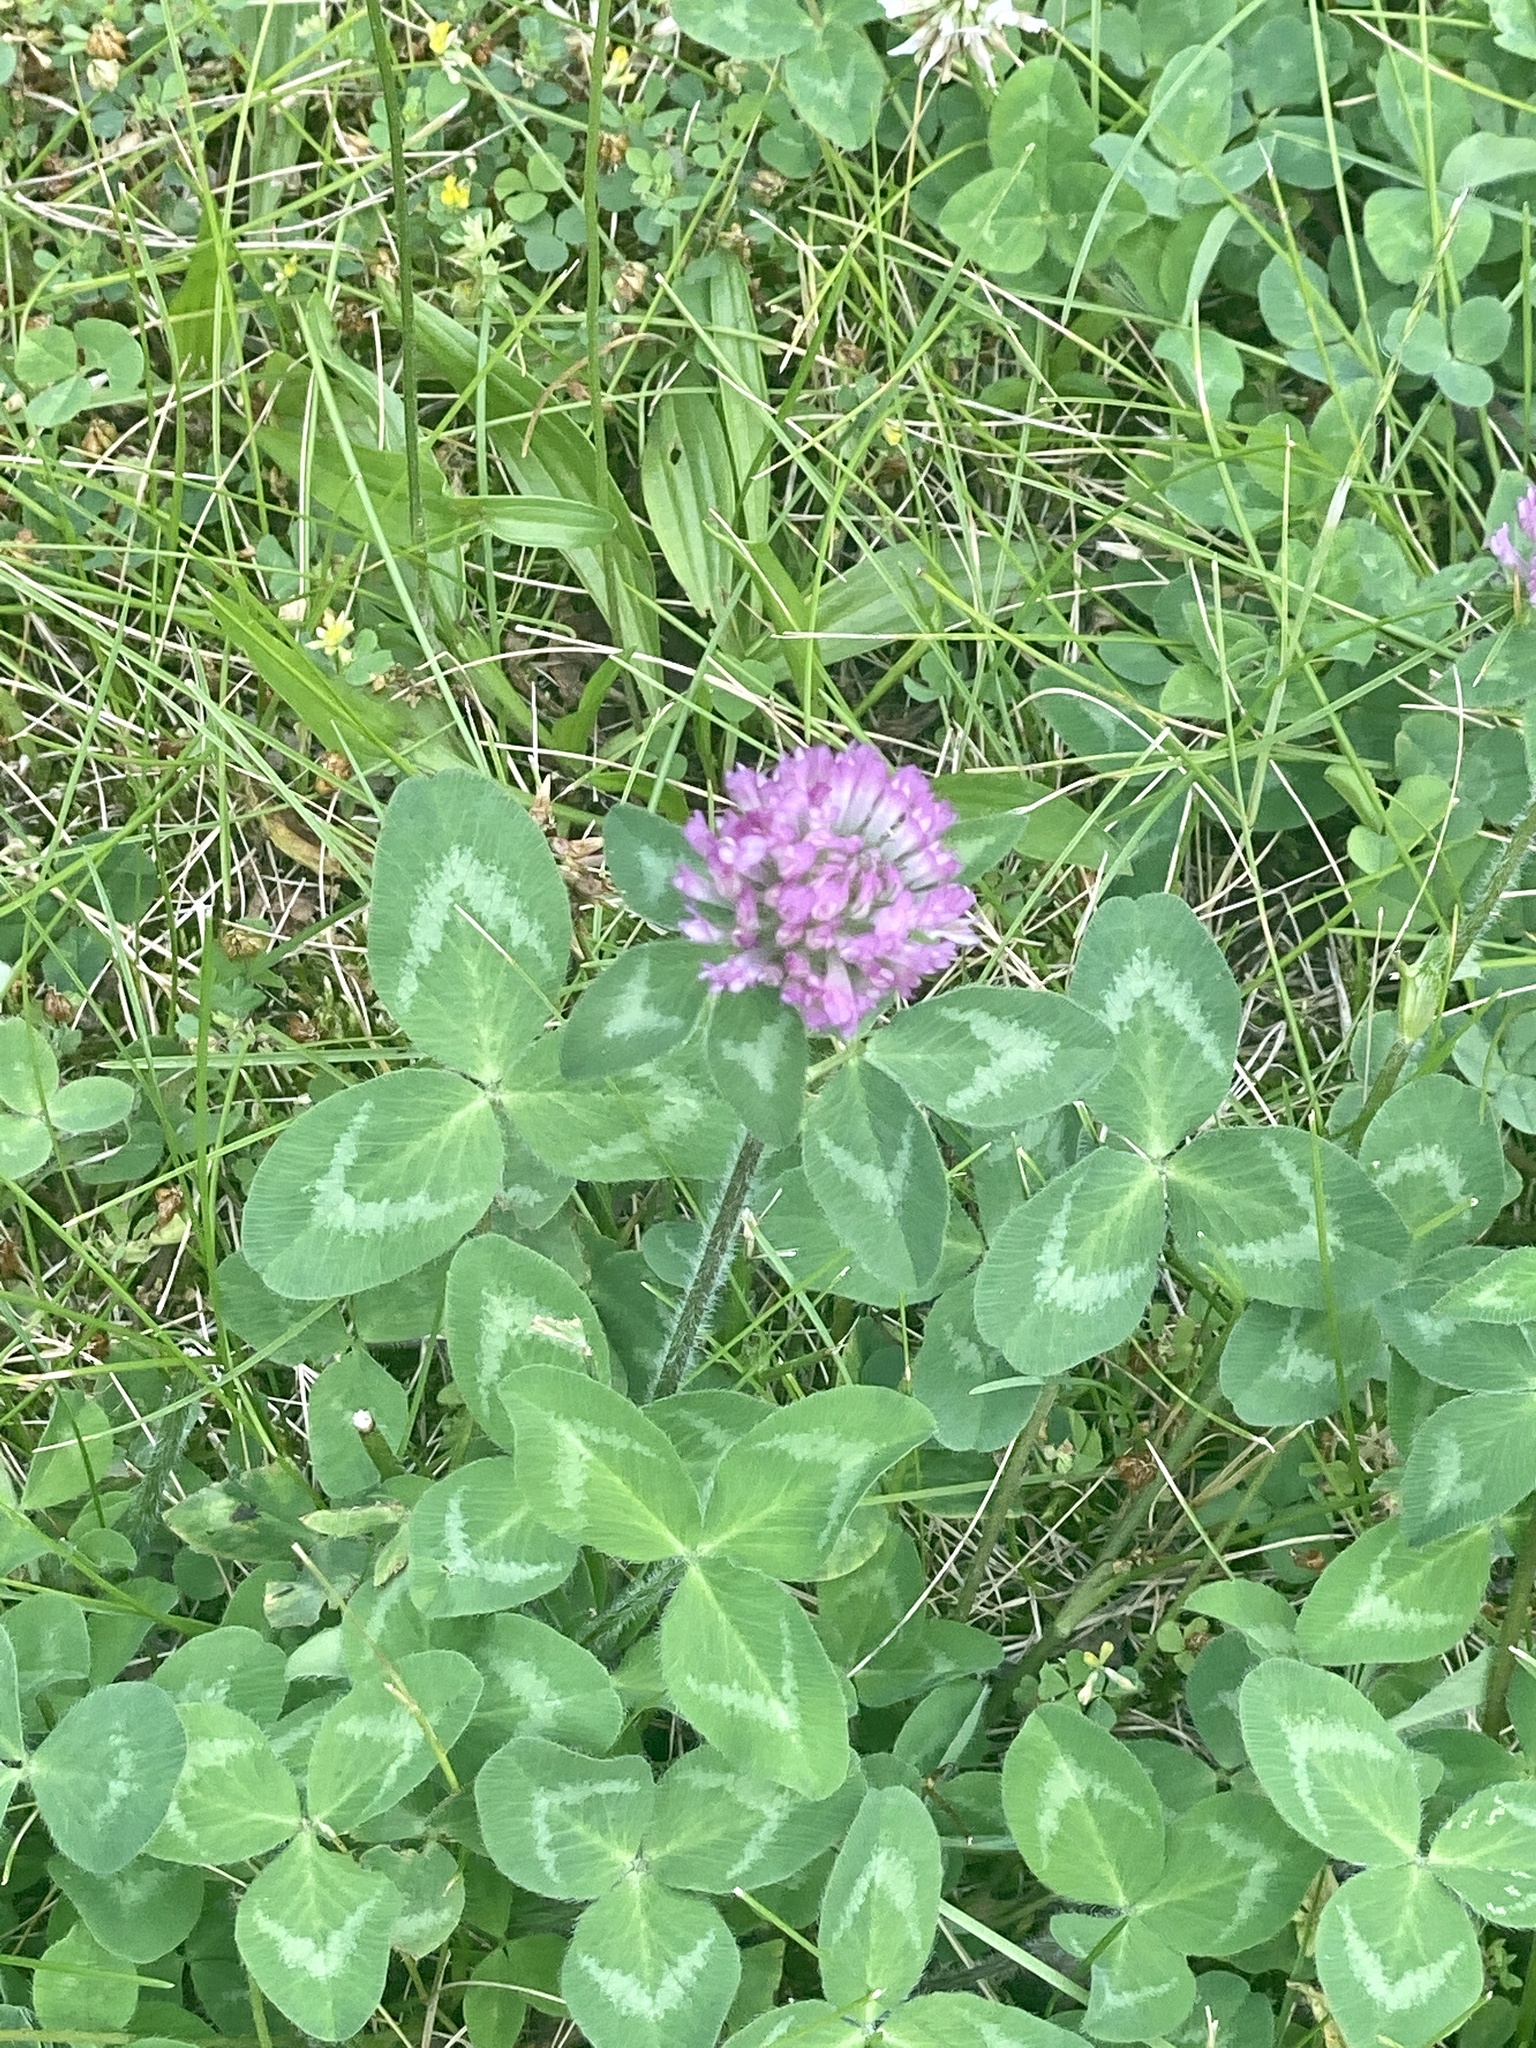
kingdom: Plantae
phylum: Tracheophyta
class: Magnoliopsida
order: Fabales
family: Fabaceae
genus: Trifolium
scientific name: Trifolium pratense
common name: Red clover
